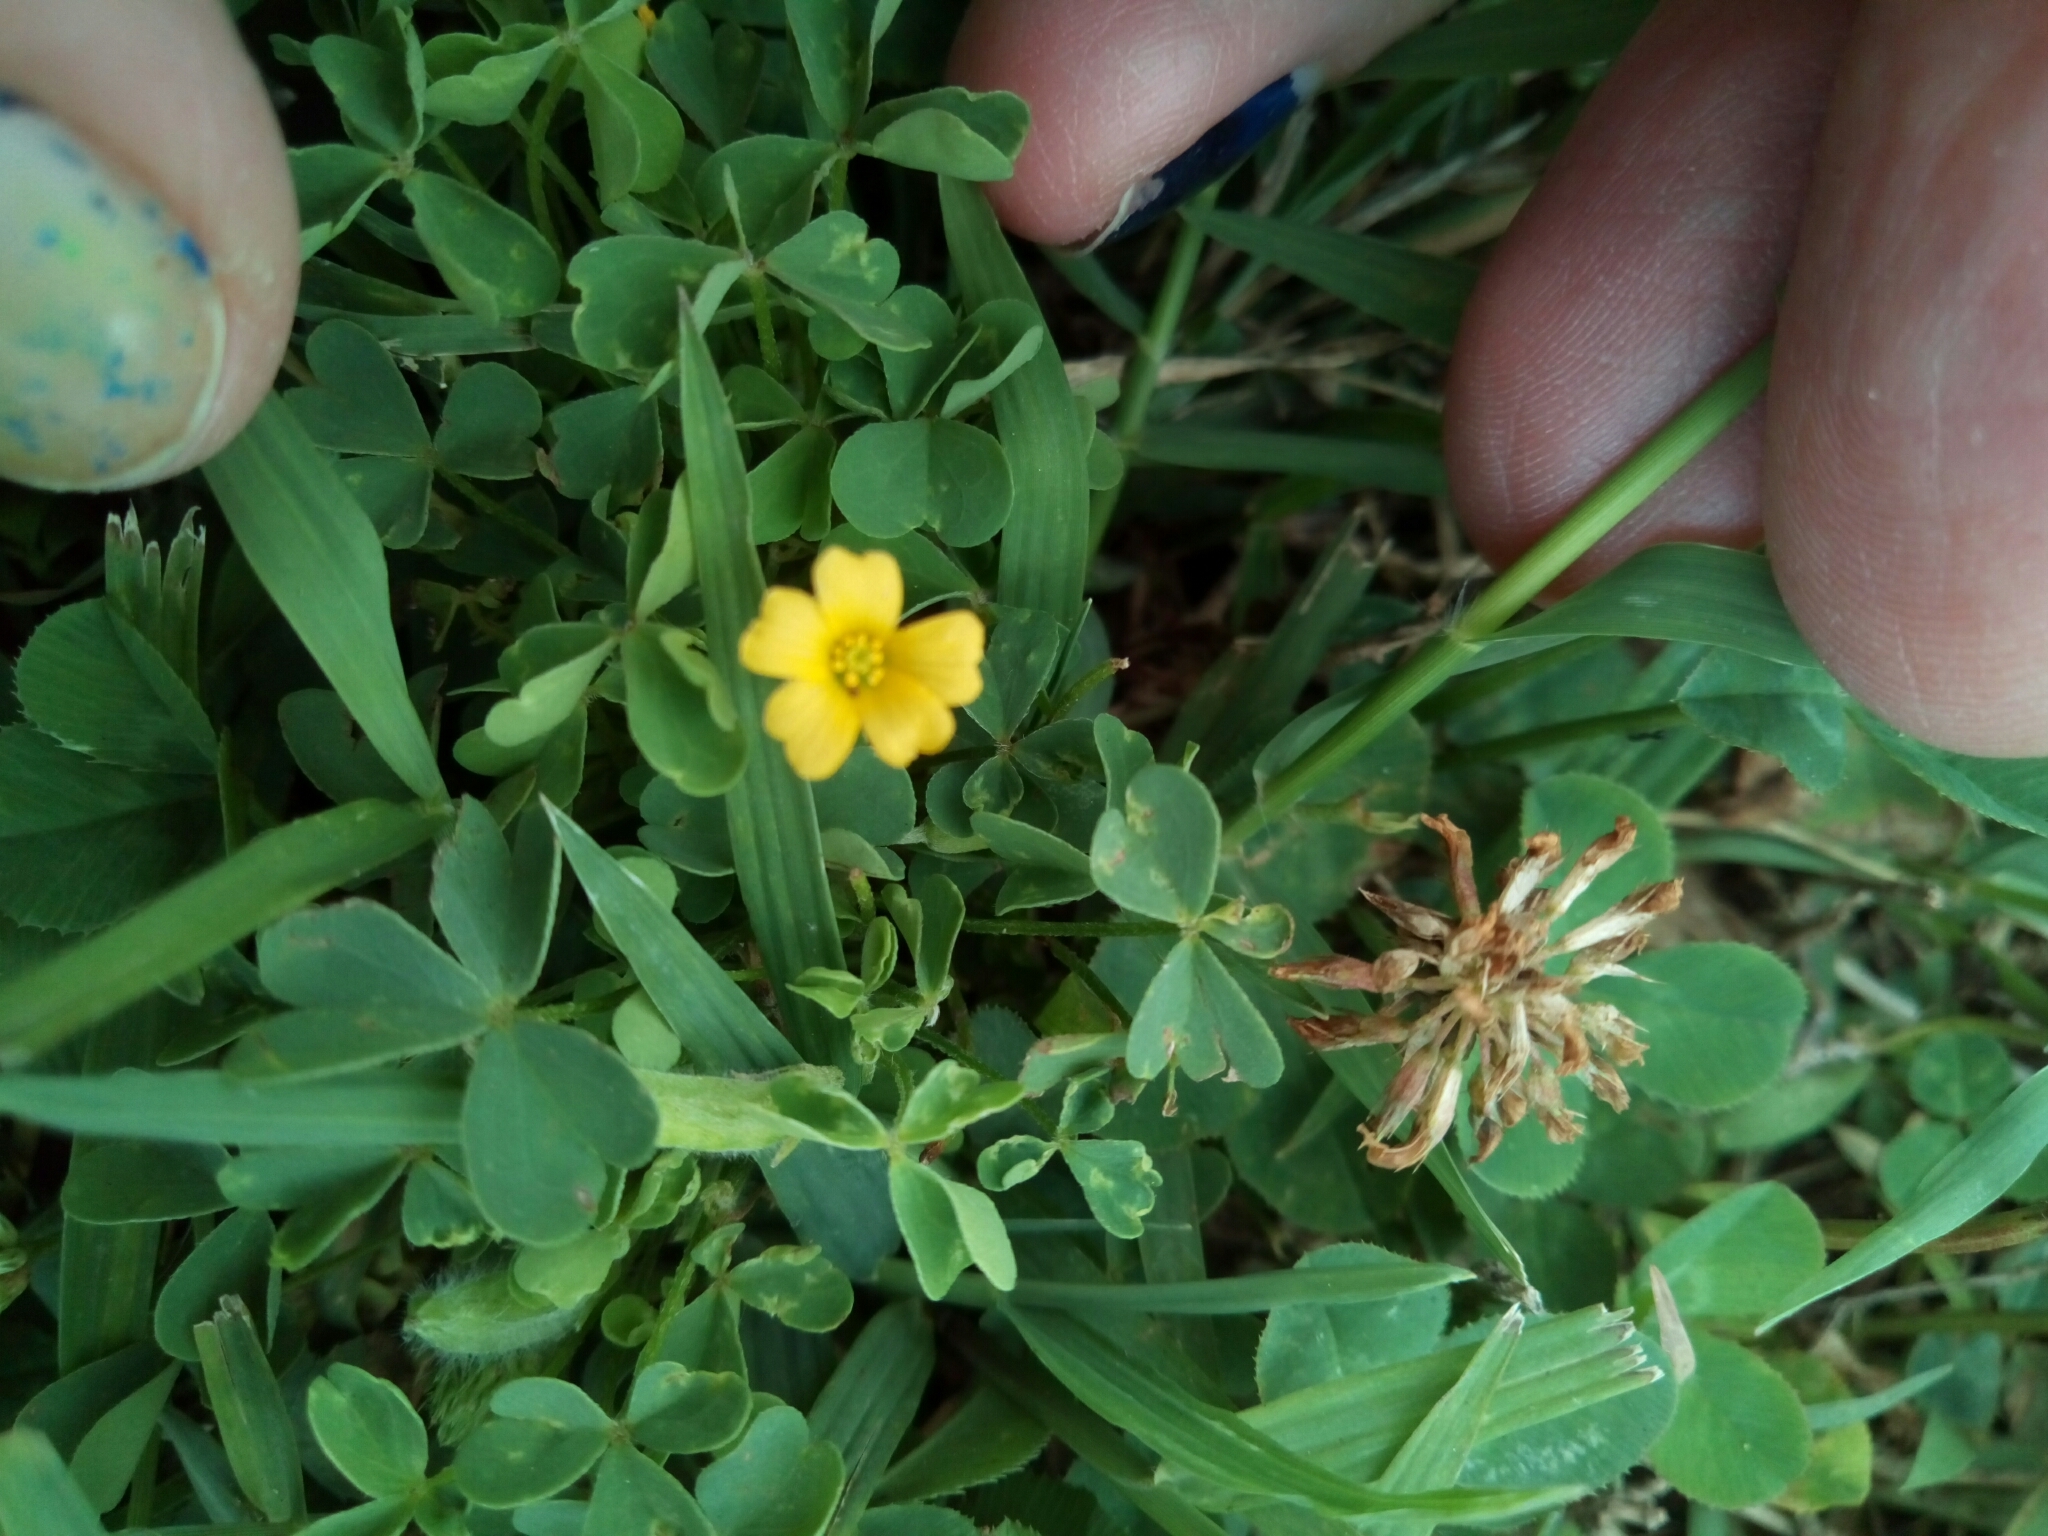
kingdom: Plantae
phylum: Tracheophyta
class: Magnoliopsida
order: Oxalidales
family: Oxalidaceae
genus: Oxalis
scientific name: Oxalis dillenii
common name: Sussex yellow-sorrel
